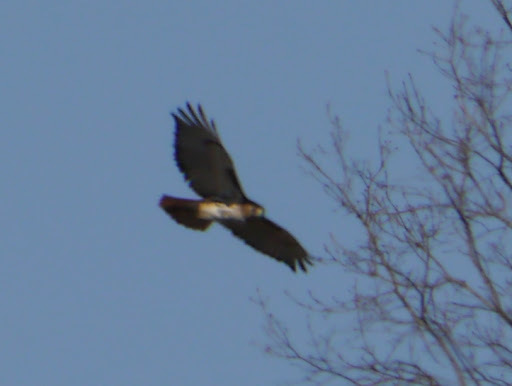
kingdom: Animalia
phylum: Chordata
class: Aves
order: Accipitriformes
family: Accipitridae
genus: Buteo
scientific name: Buteo jamaicensis
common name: Red-tailed hawk
